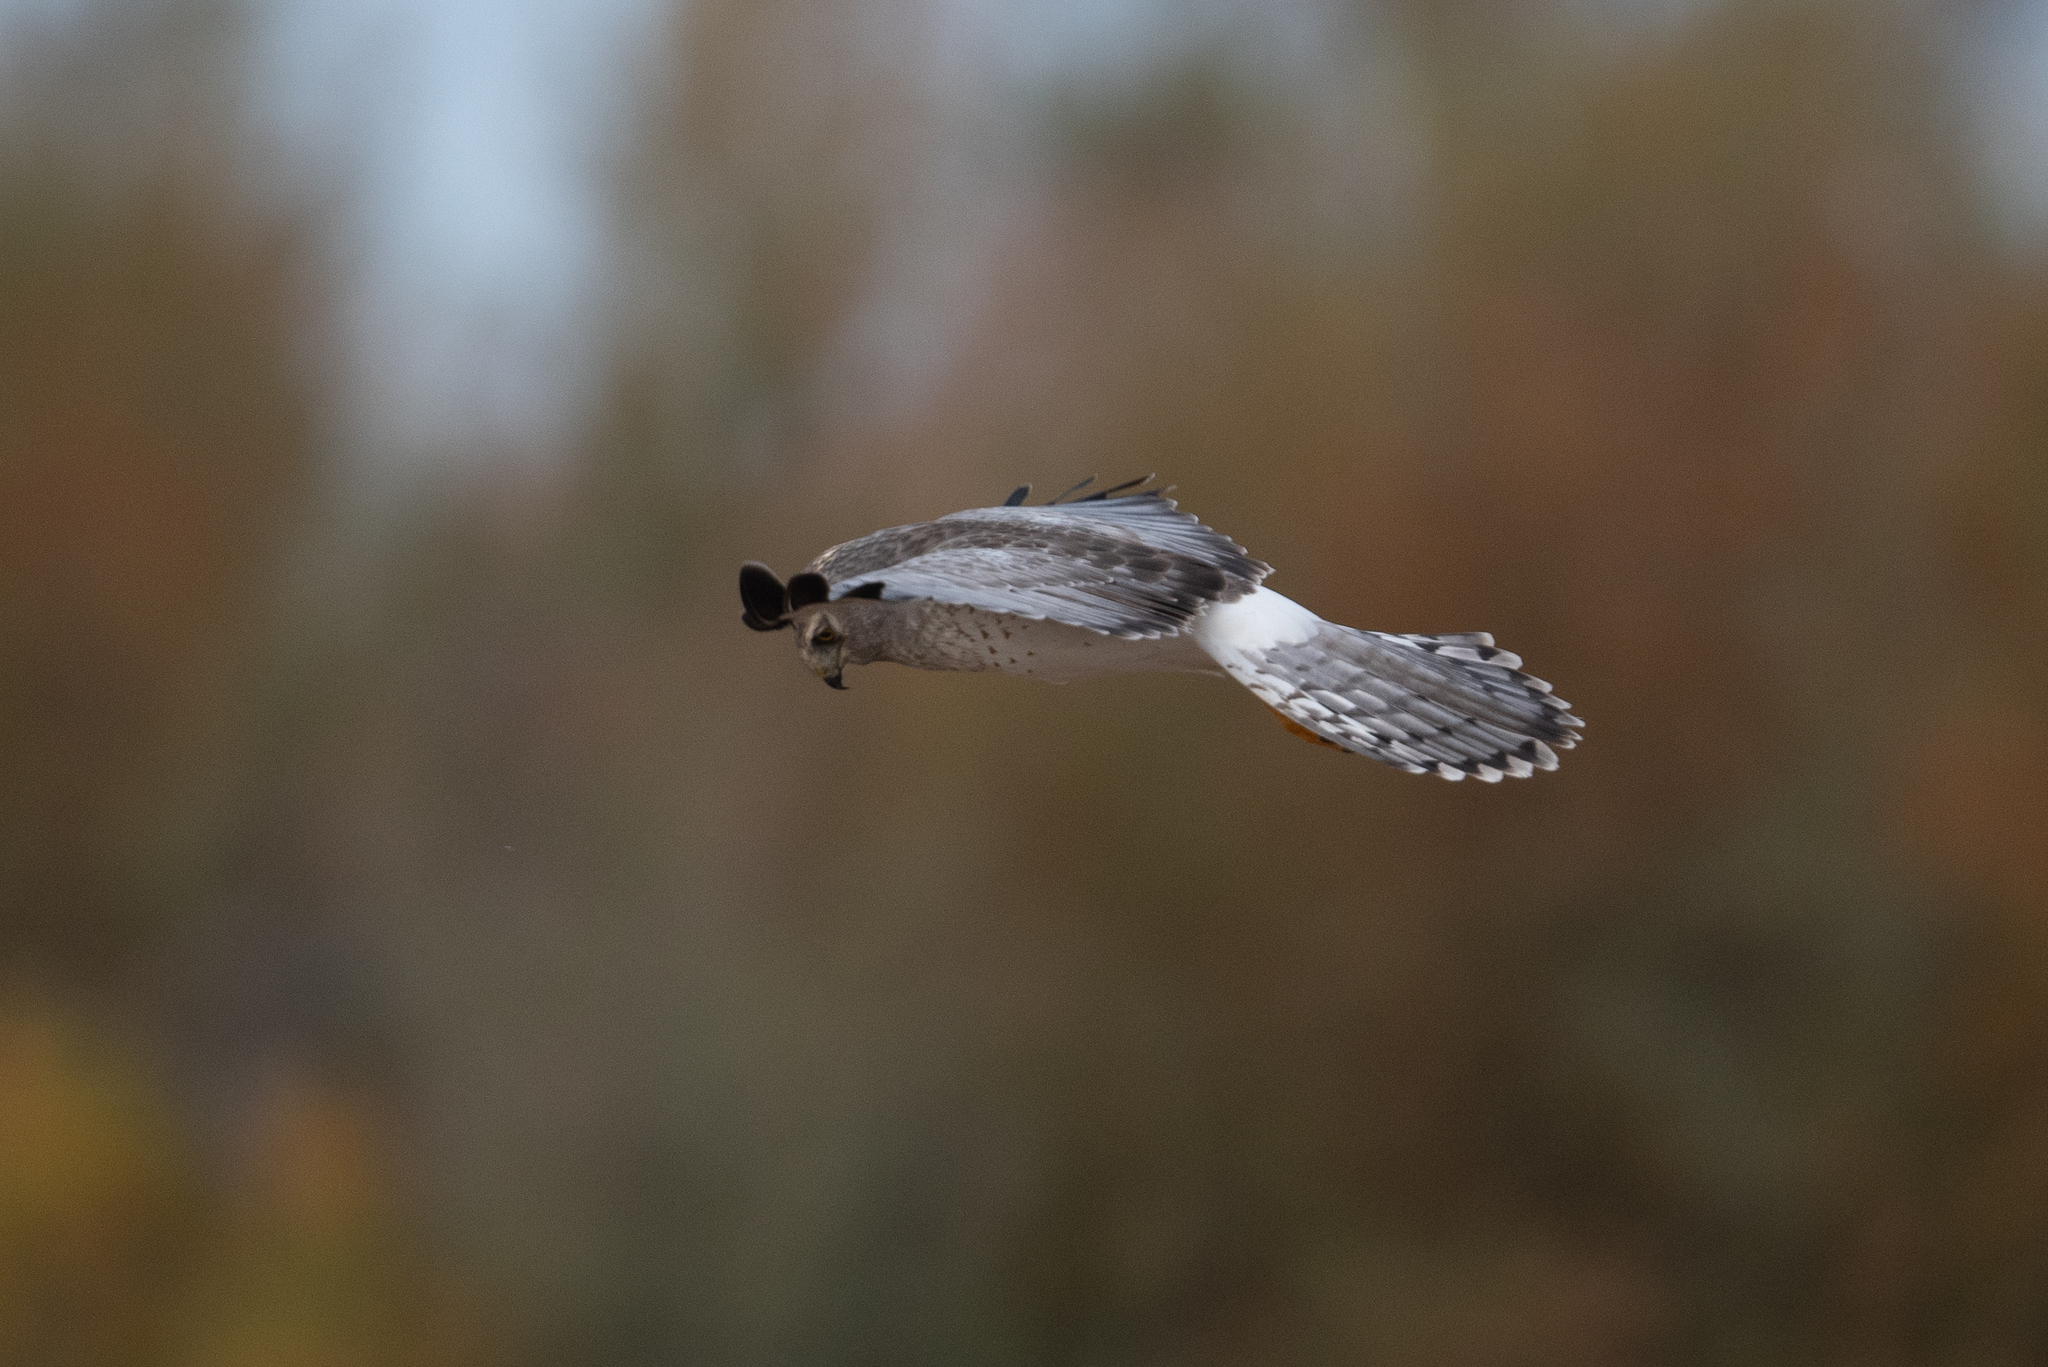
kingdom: Animalia
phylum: Chordata
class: Aves
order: Accipitriformes
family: Accipitridae
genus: Circus
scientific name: Circus cyaneus
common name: Hen harrier
